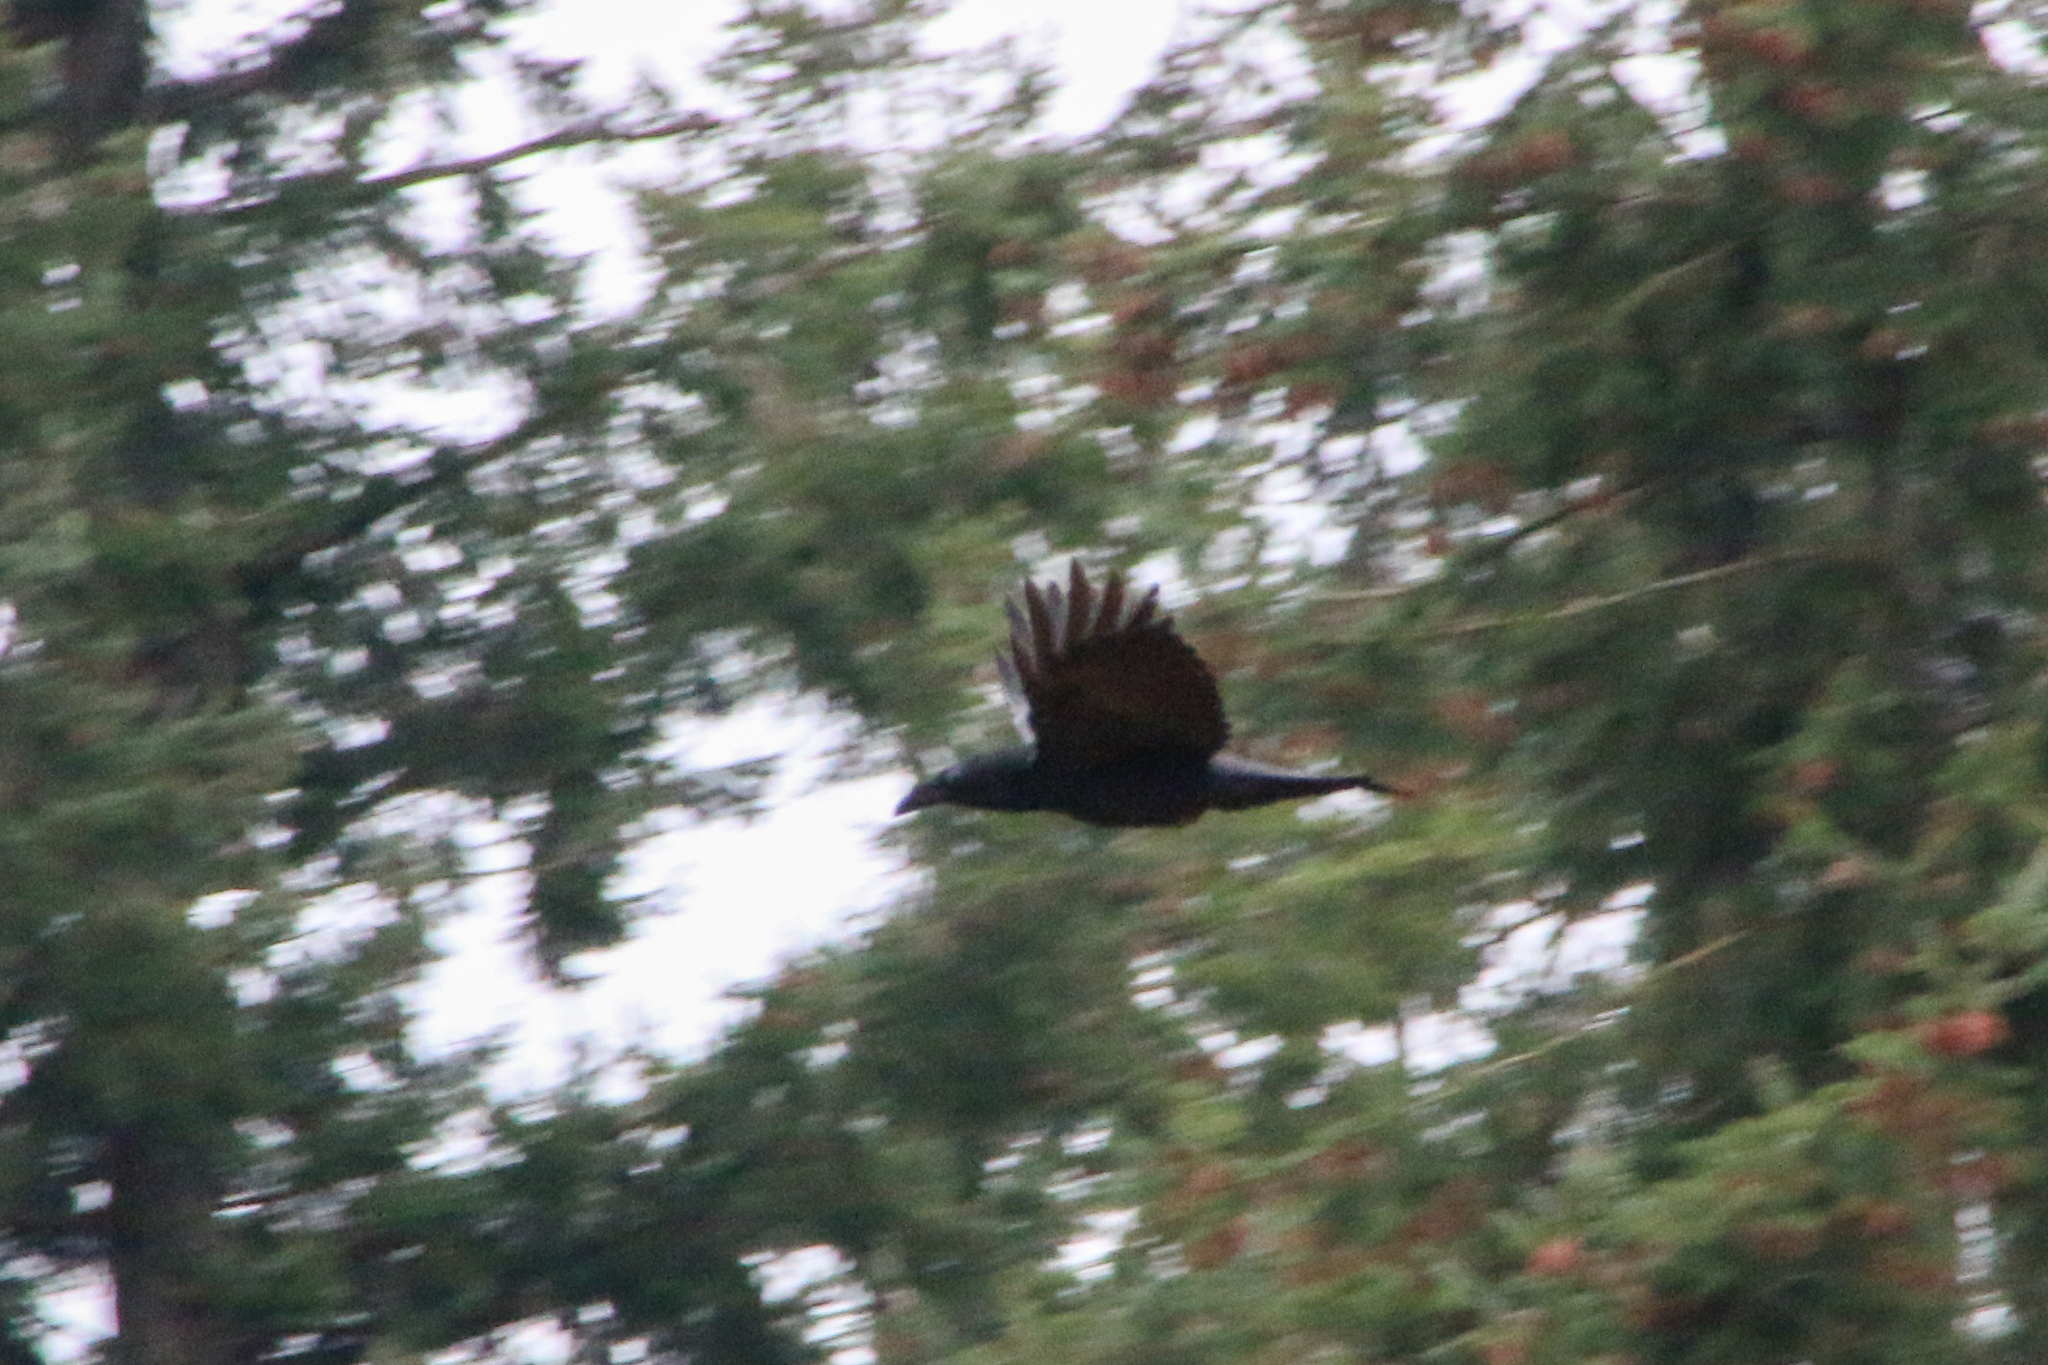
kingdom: Animalia
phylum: Chordata
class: Aves
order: Passeriformes
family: Corvidae
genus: Corvus
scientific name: Corvus corax
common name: Common raven
